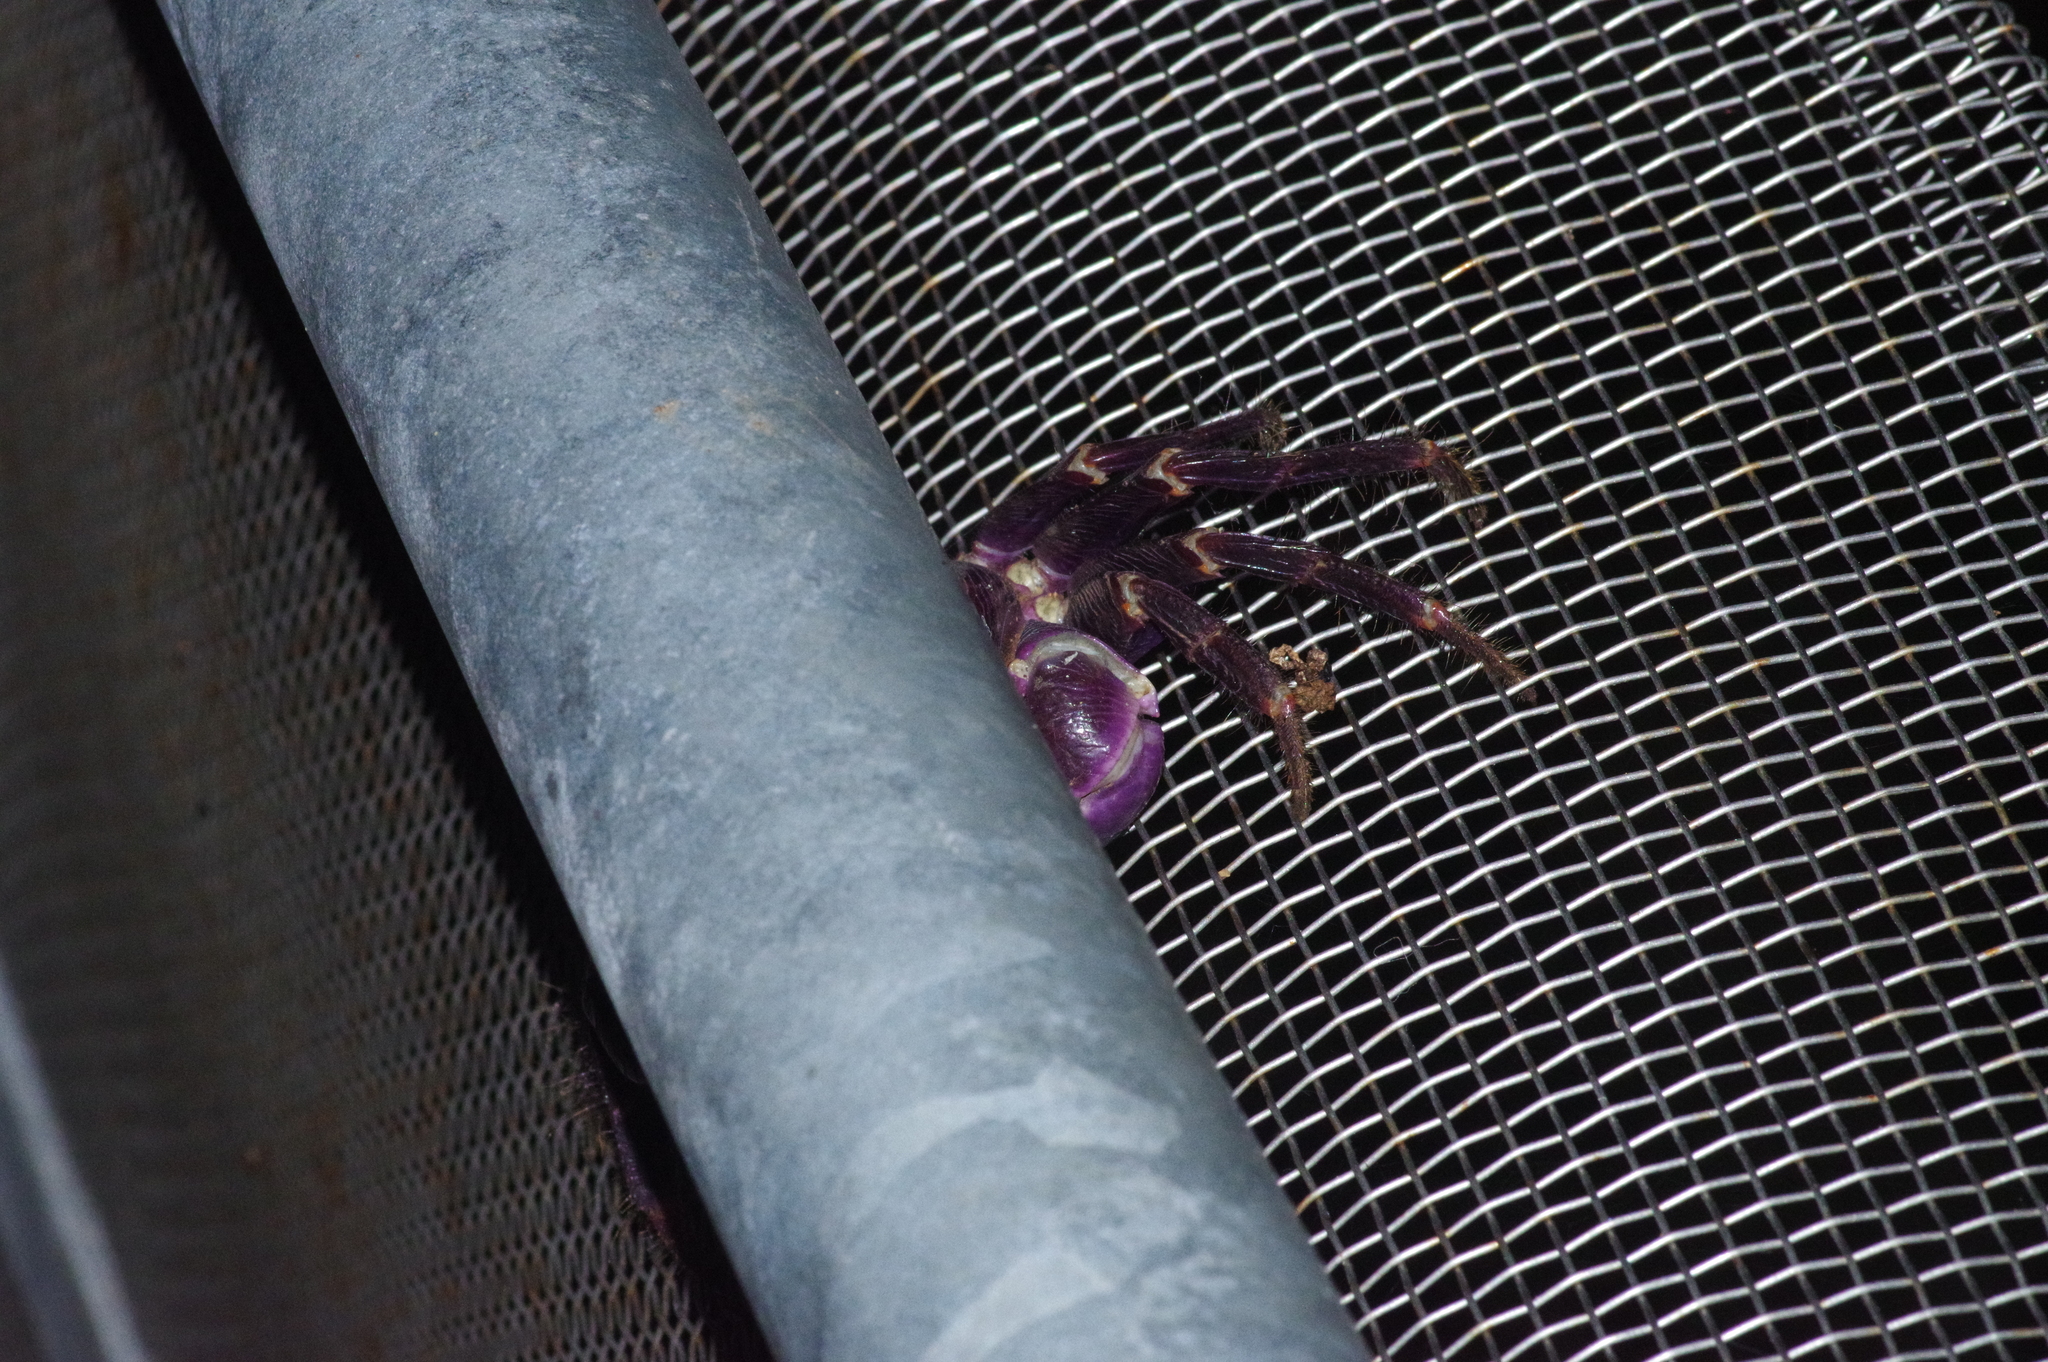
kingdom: Animalia
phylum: Arthropoda
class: Malacostraca
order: Decapoda
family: Grapsidae
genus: Geograpsus
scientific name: Geograpsus grayi
